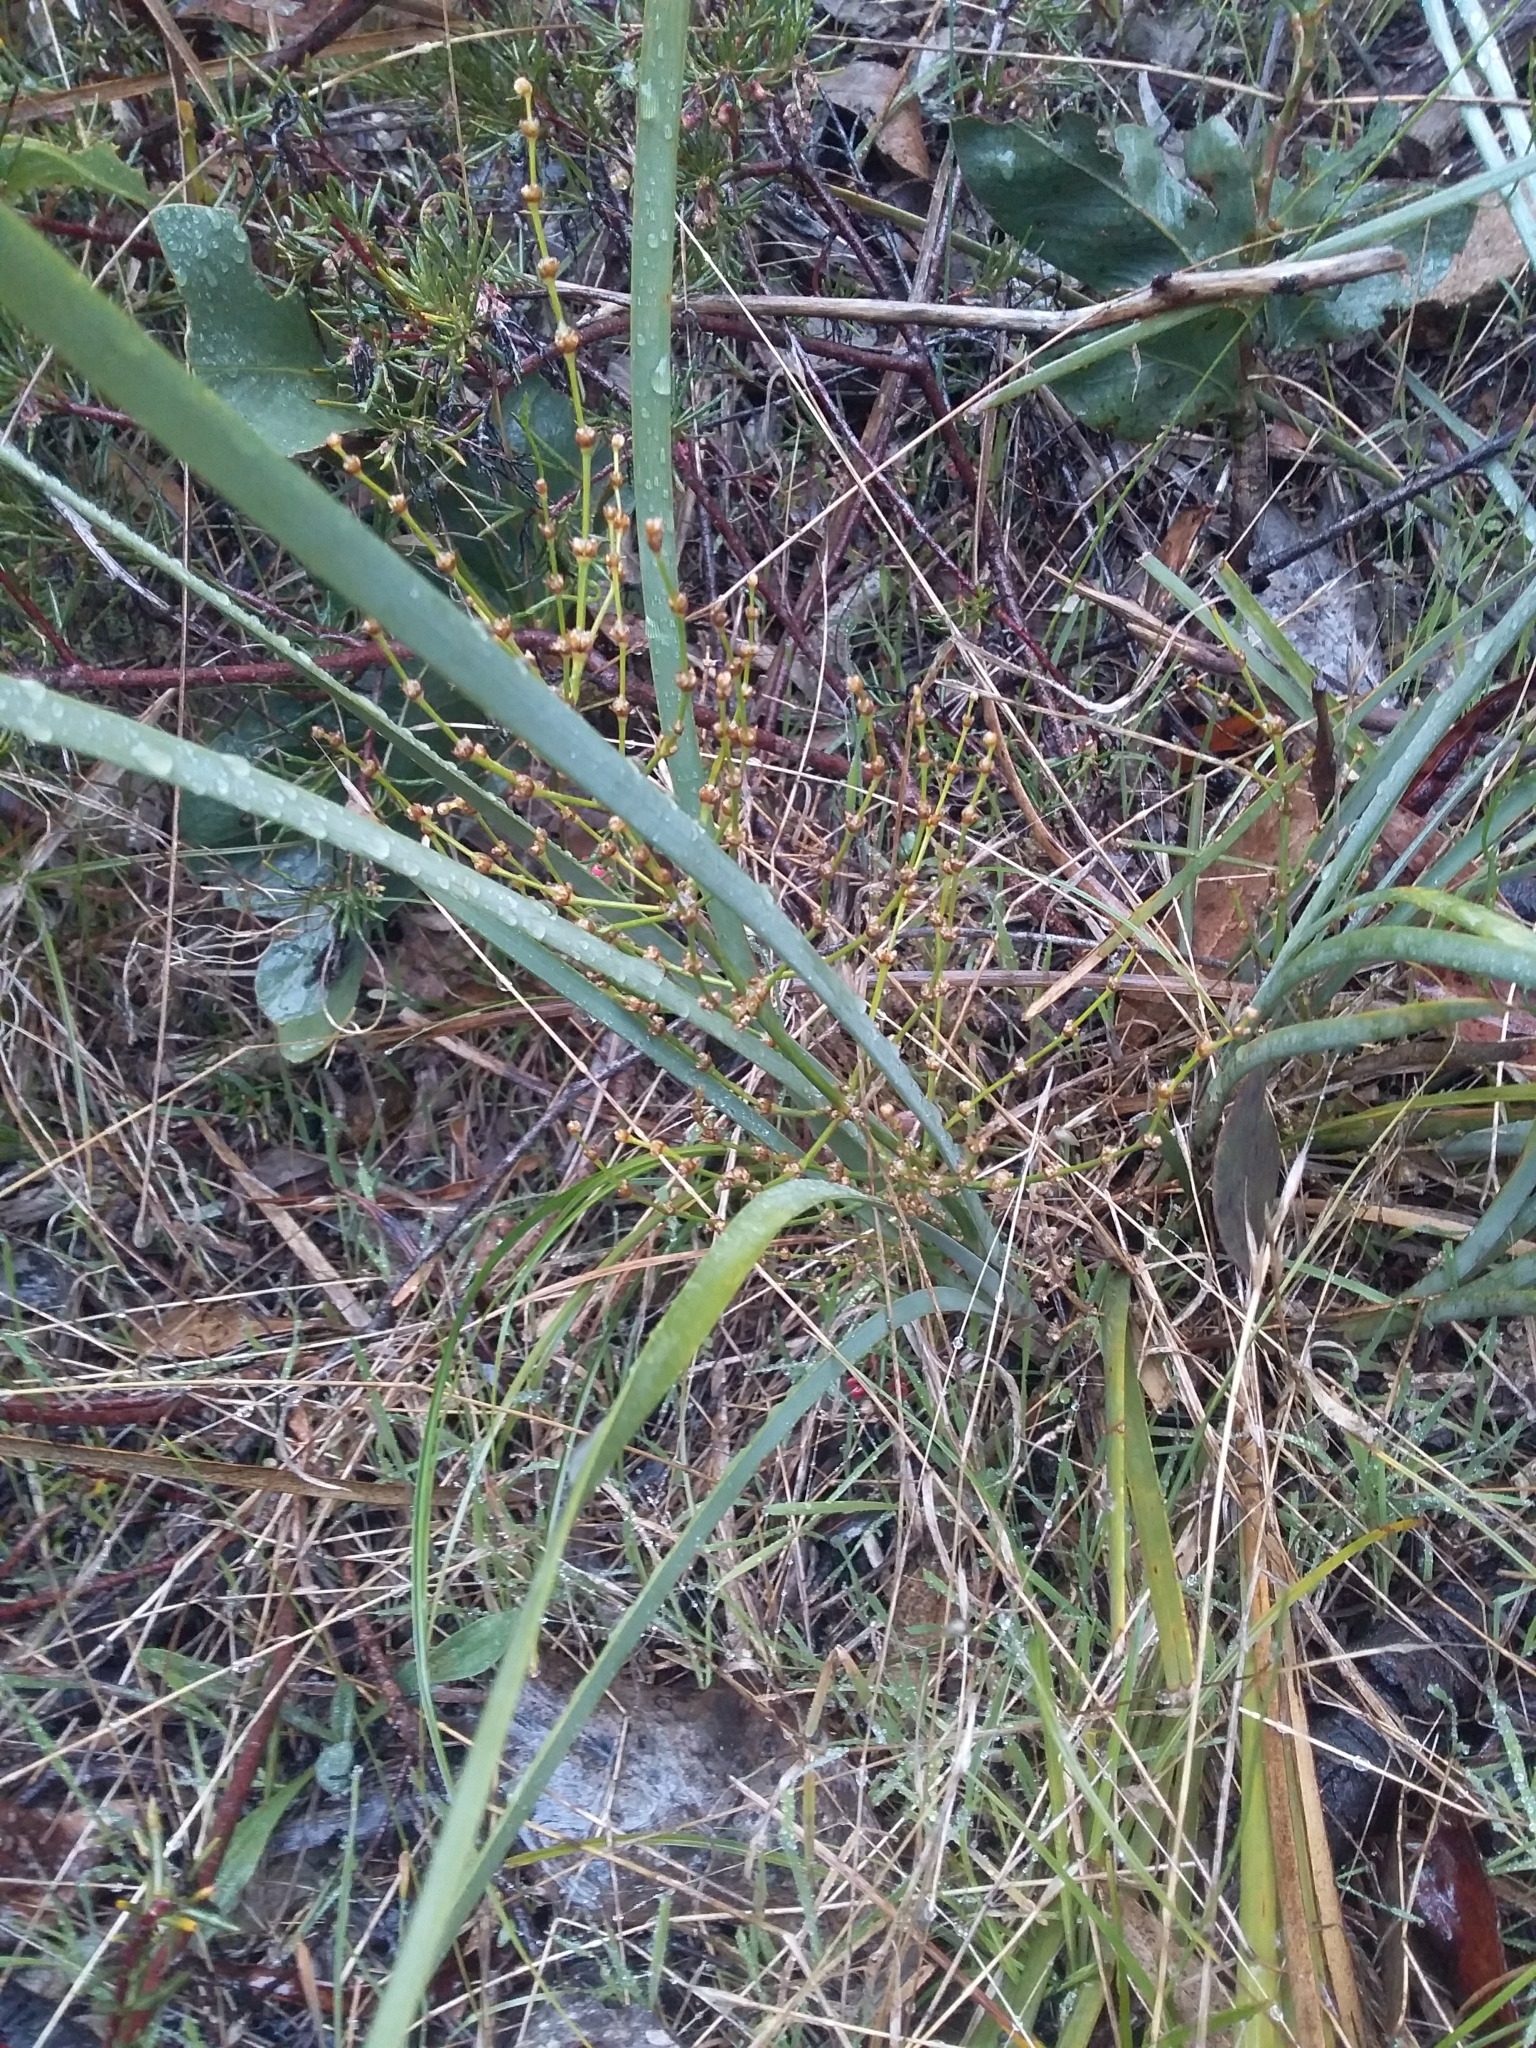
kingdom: Plantae
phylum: Tracheophyta
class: Liliopsida
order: Asparagales
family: Asparagaceae
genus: Lomandra
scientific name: Lomandra multiflora
